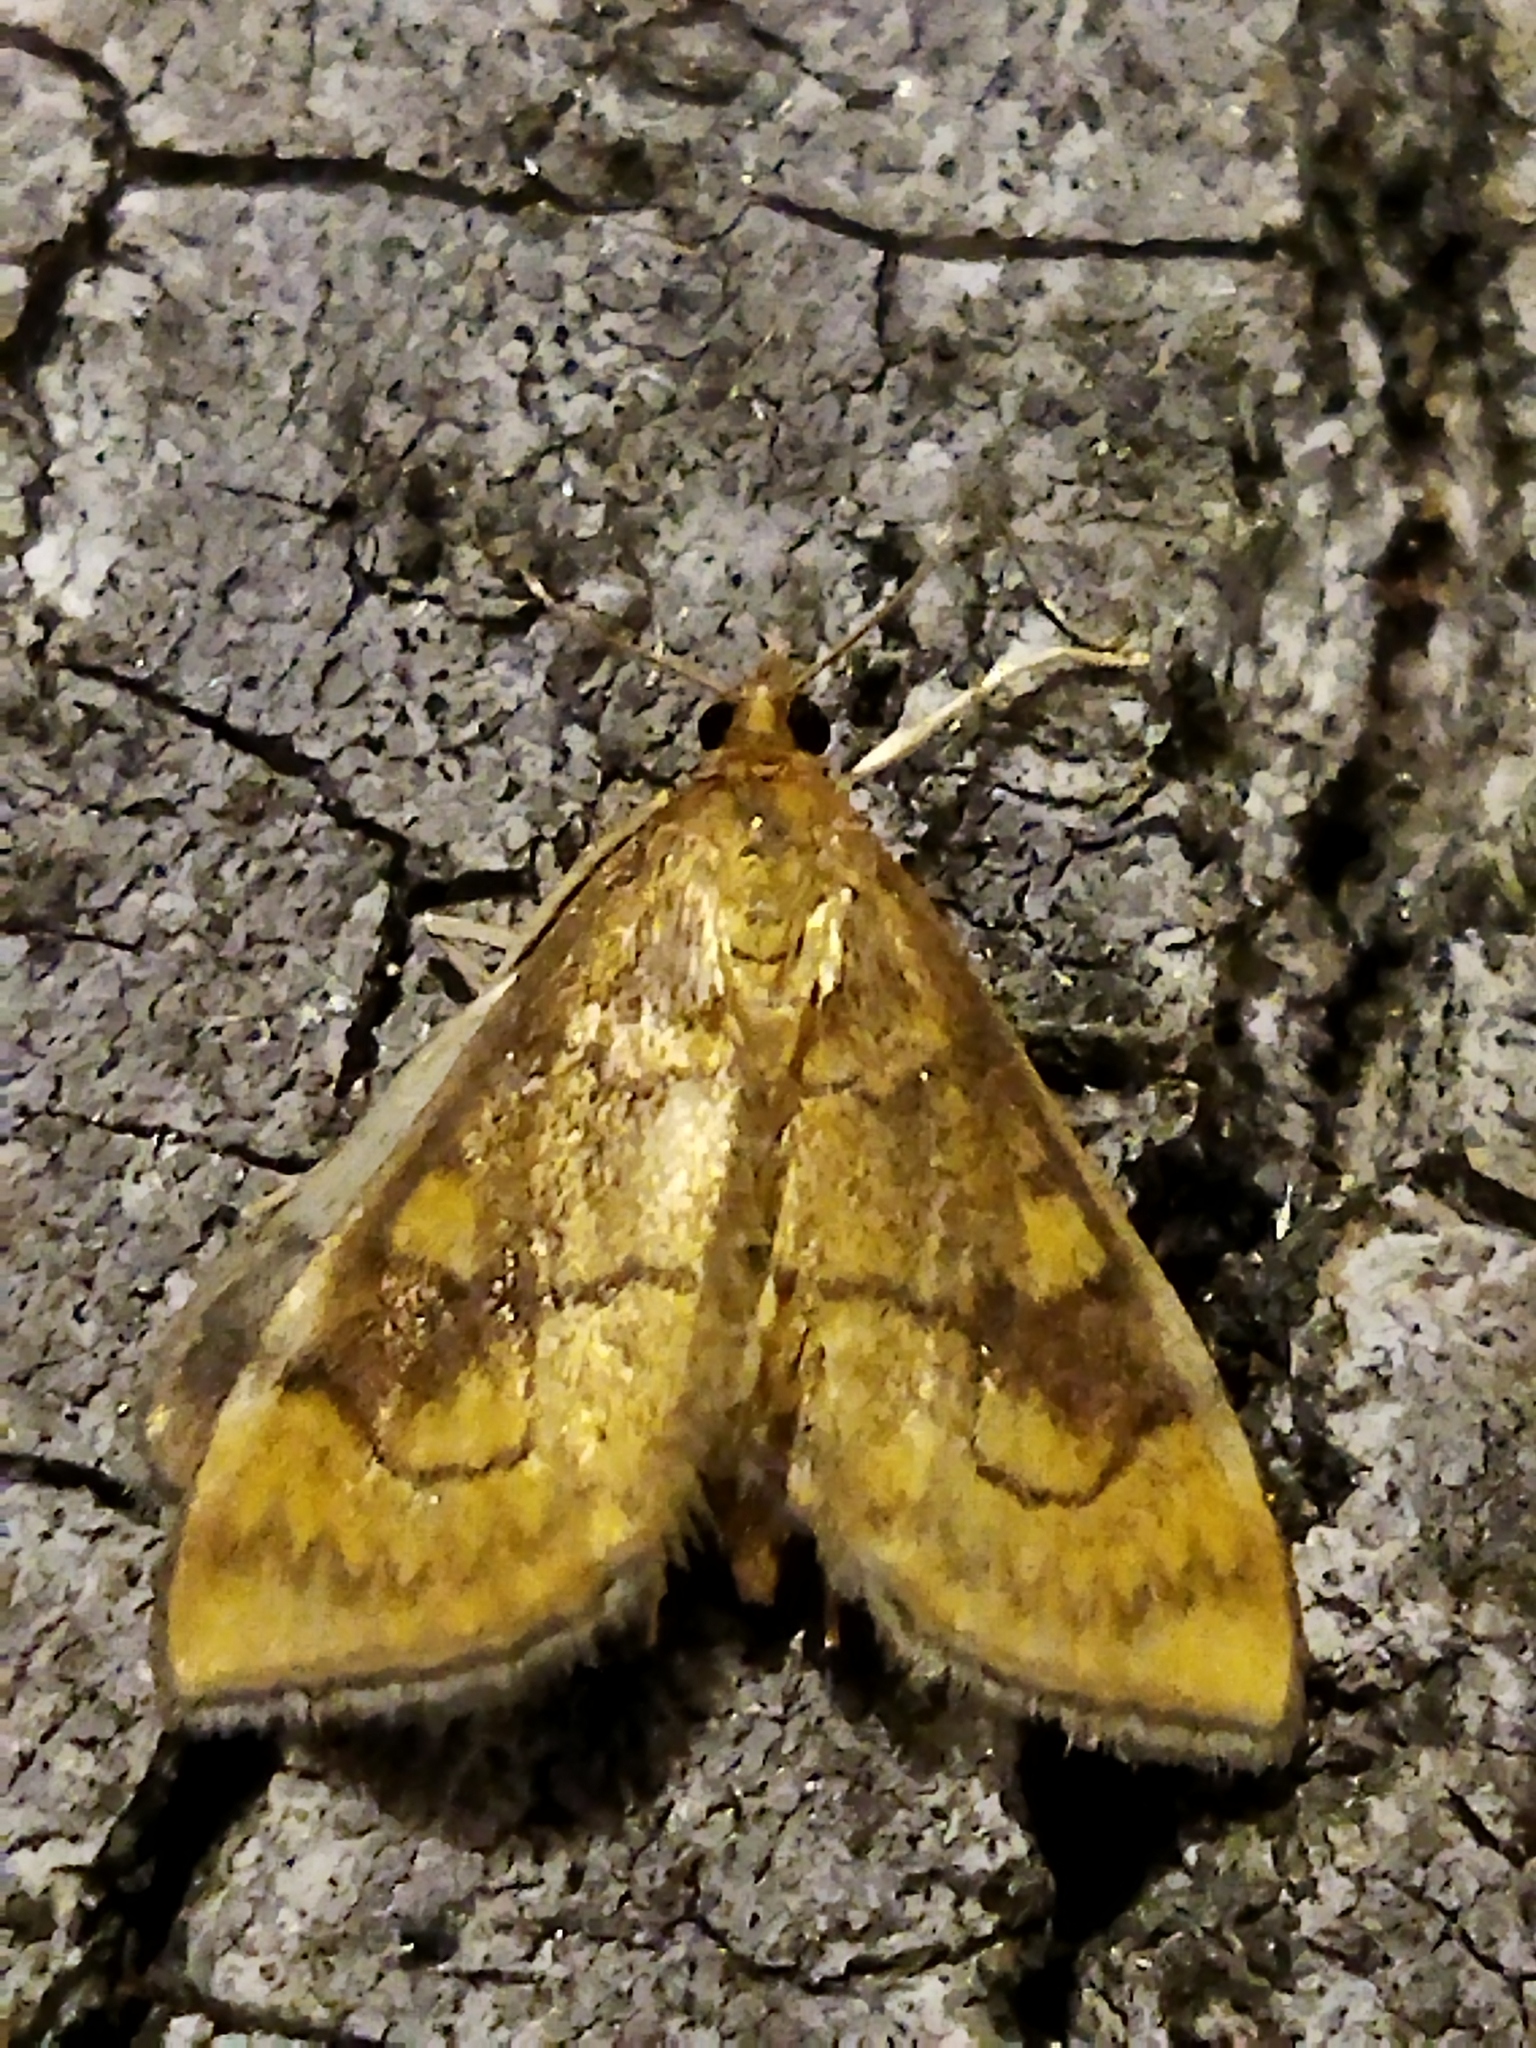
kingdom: Animalia
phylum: Arthropoda
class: Insecta
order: Lepidoptera
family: Crambidae
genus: Anania
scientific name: Anania verbascalis
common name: Golden pearl
